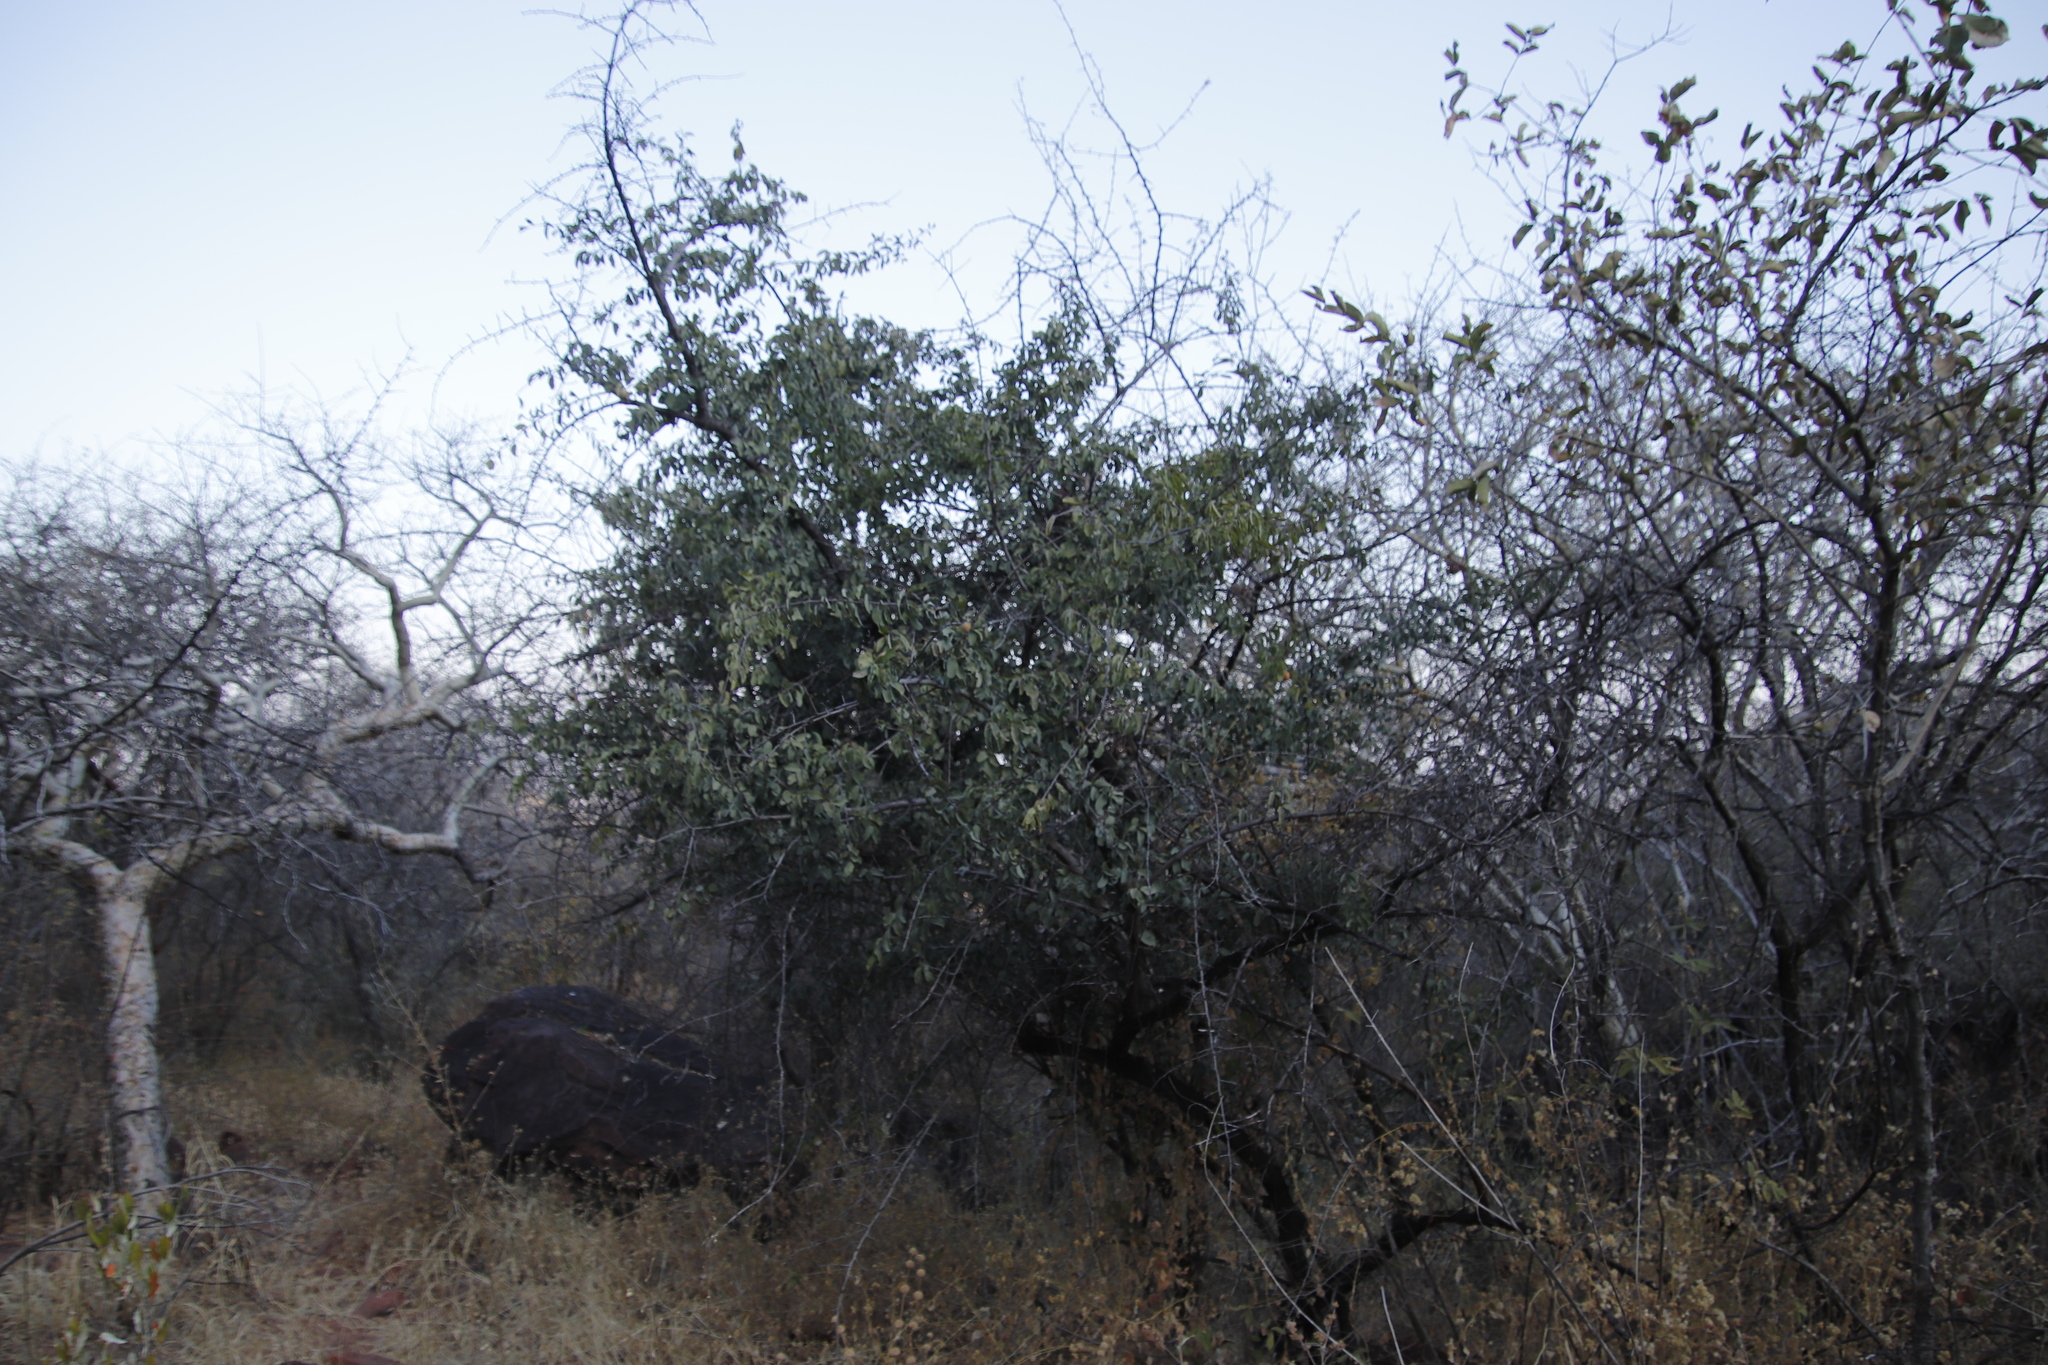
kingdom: Plantae
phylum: Tracheophyta
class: Magnoliopsida
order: Santalales
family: Ximeniaceae
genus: Ximenia
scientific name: Ximenia americana
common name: Tallowwood
